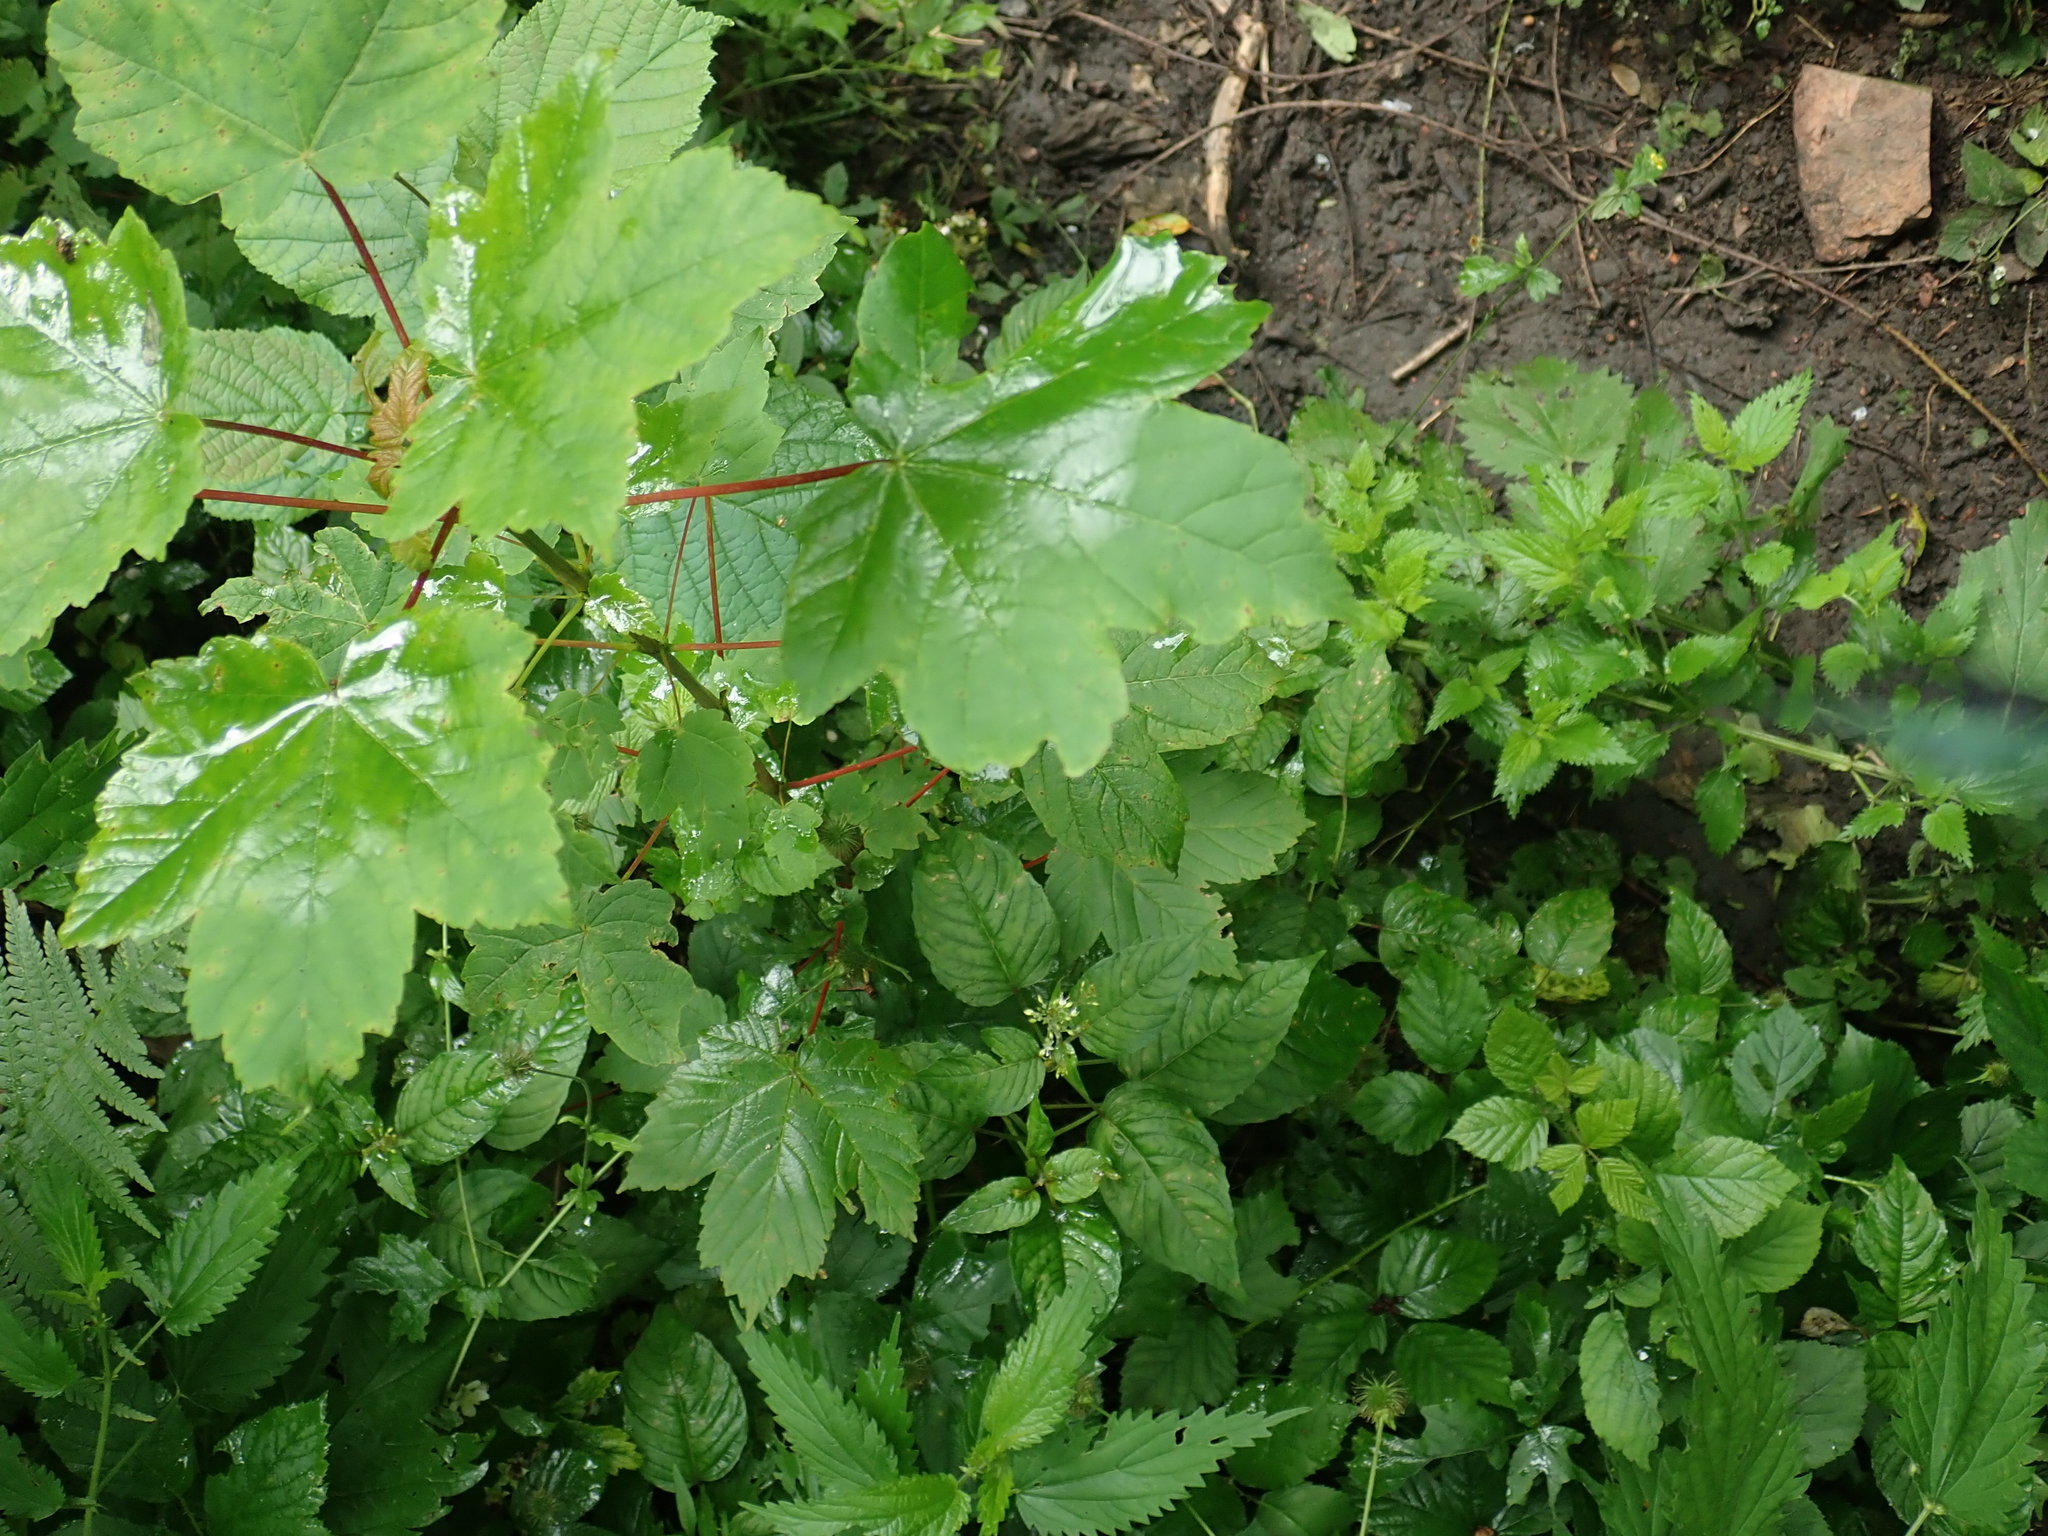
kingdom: Plantae
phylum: Tracheophyta
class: Magnoliopsida
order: Sapindales
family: Sapindaceae
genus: Acer
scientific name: Acer pseudoplatanus
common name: Sycamore
